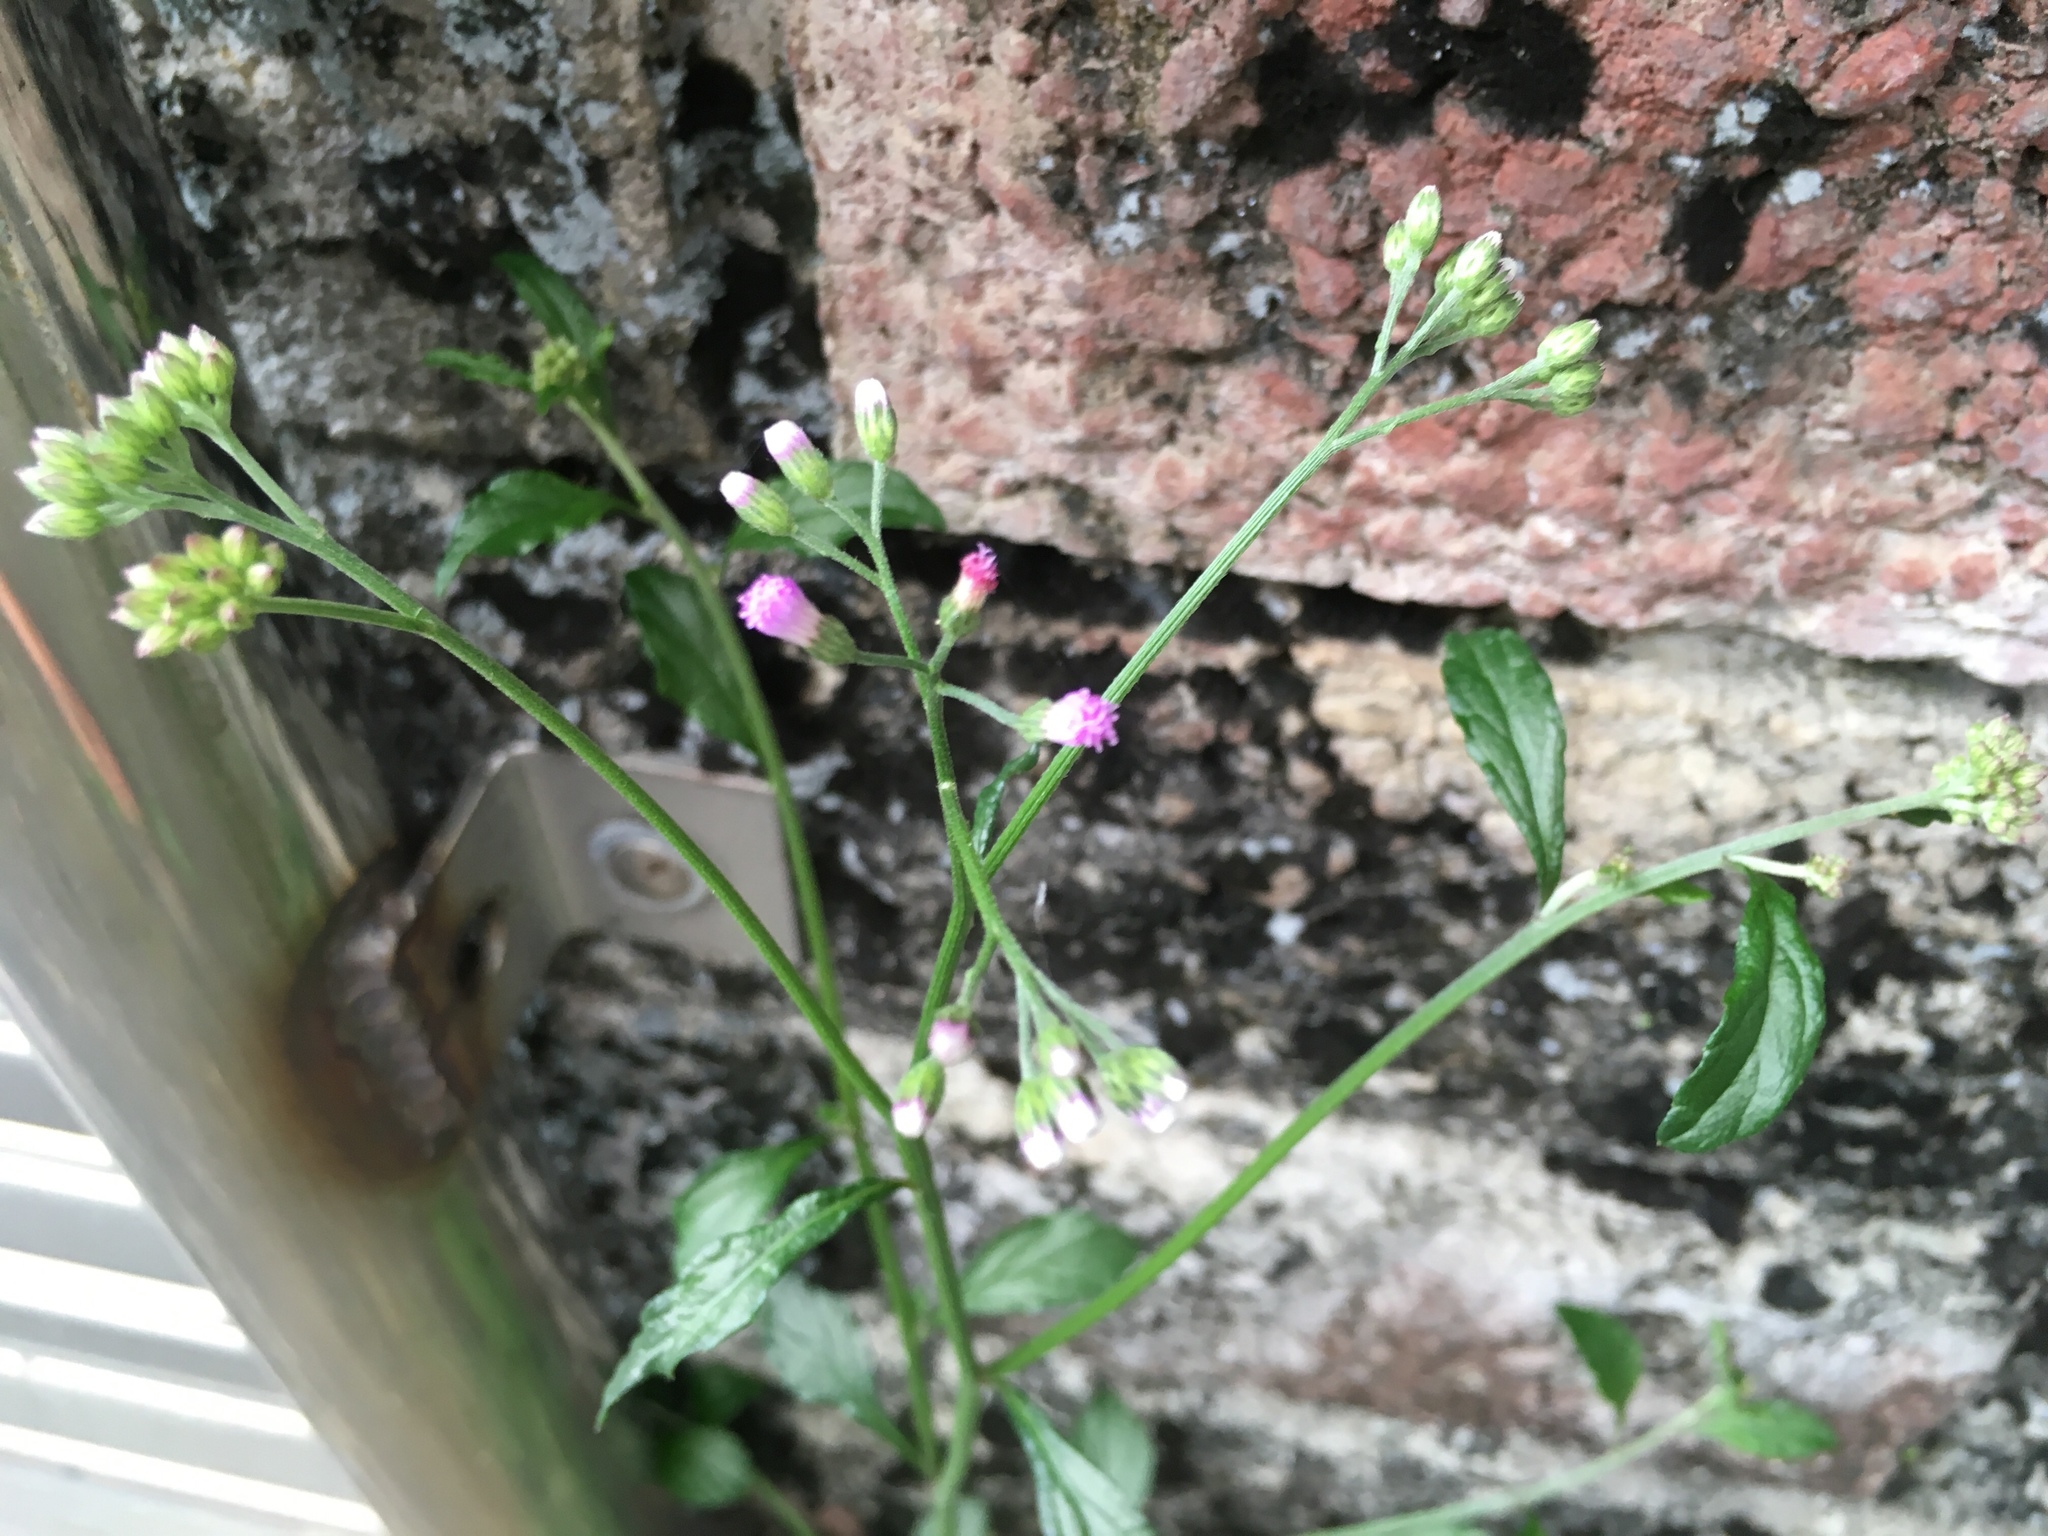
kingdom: Plantae
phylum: Tracheophyta
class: Magnoliopsida
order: Asterales
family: Asteraceae
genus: Cyanthillium
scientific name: Cyanthillium cinereum
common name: Little ironweed
